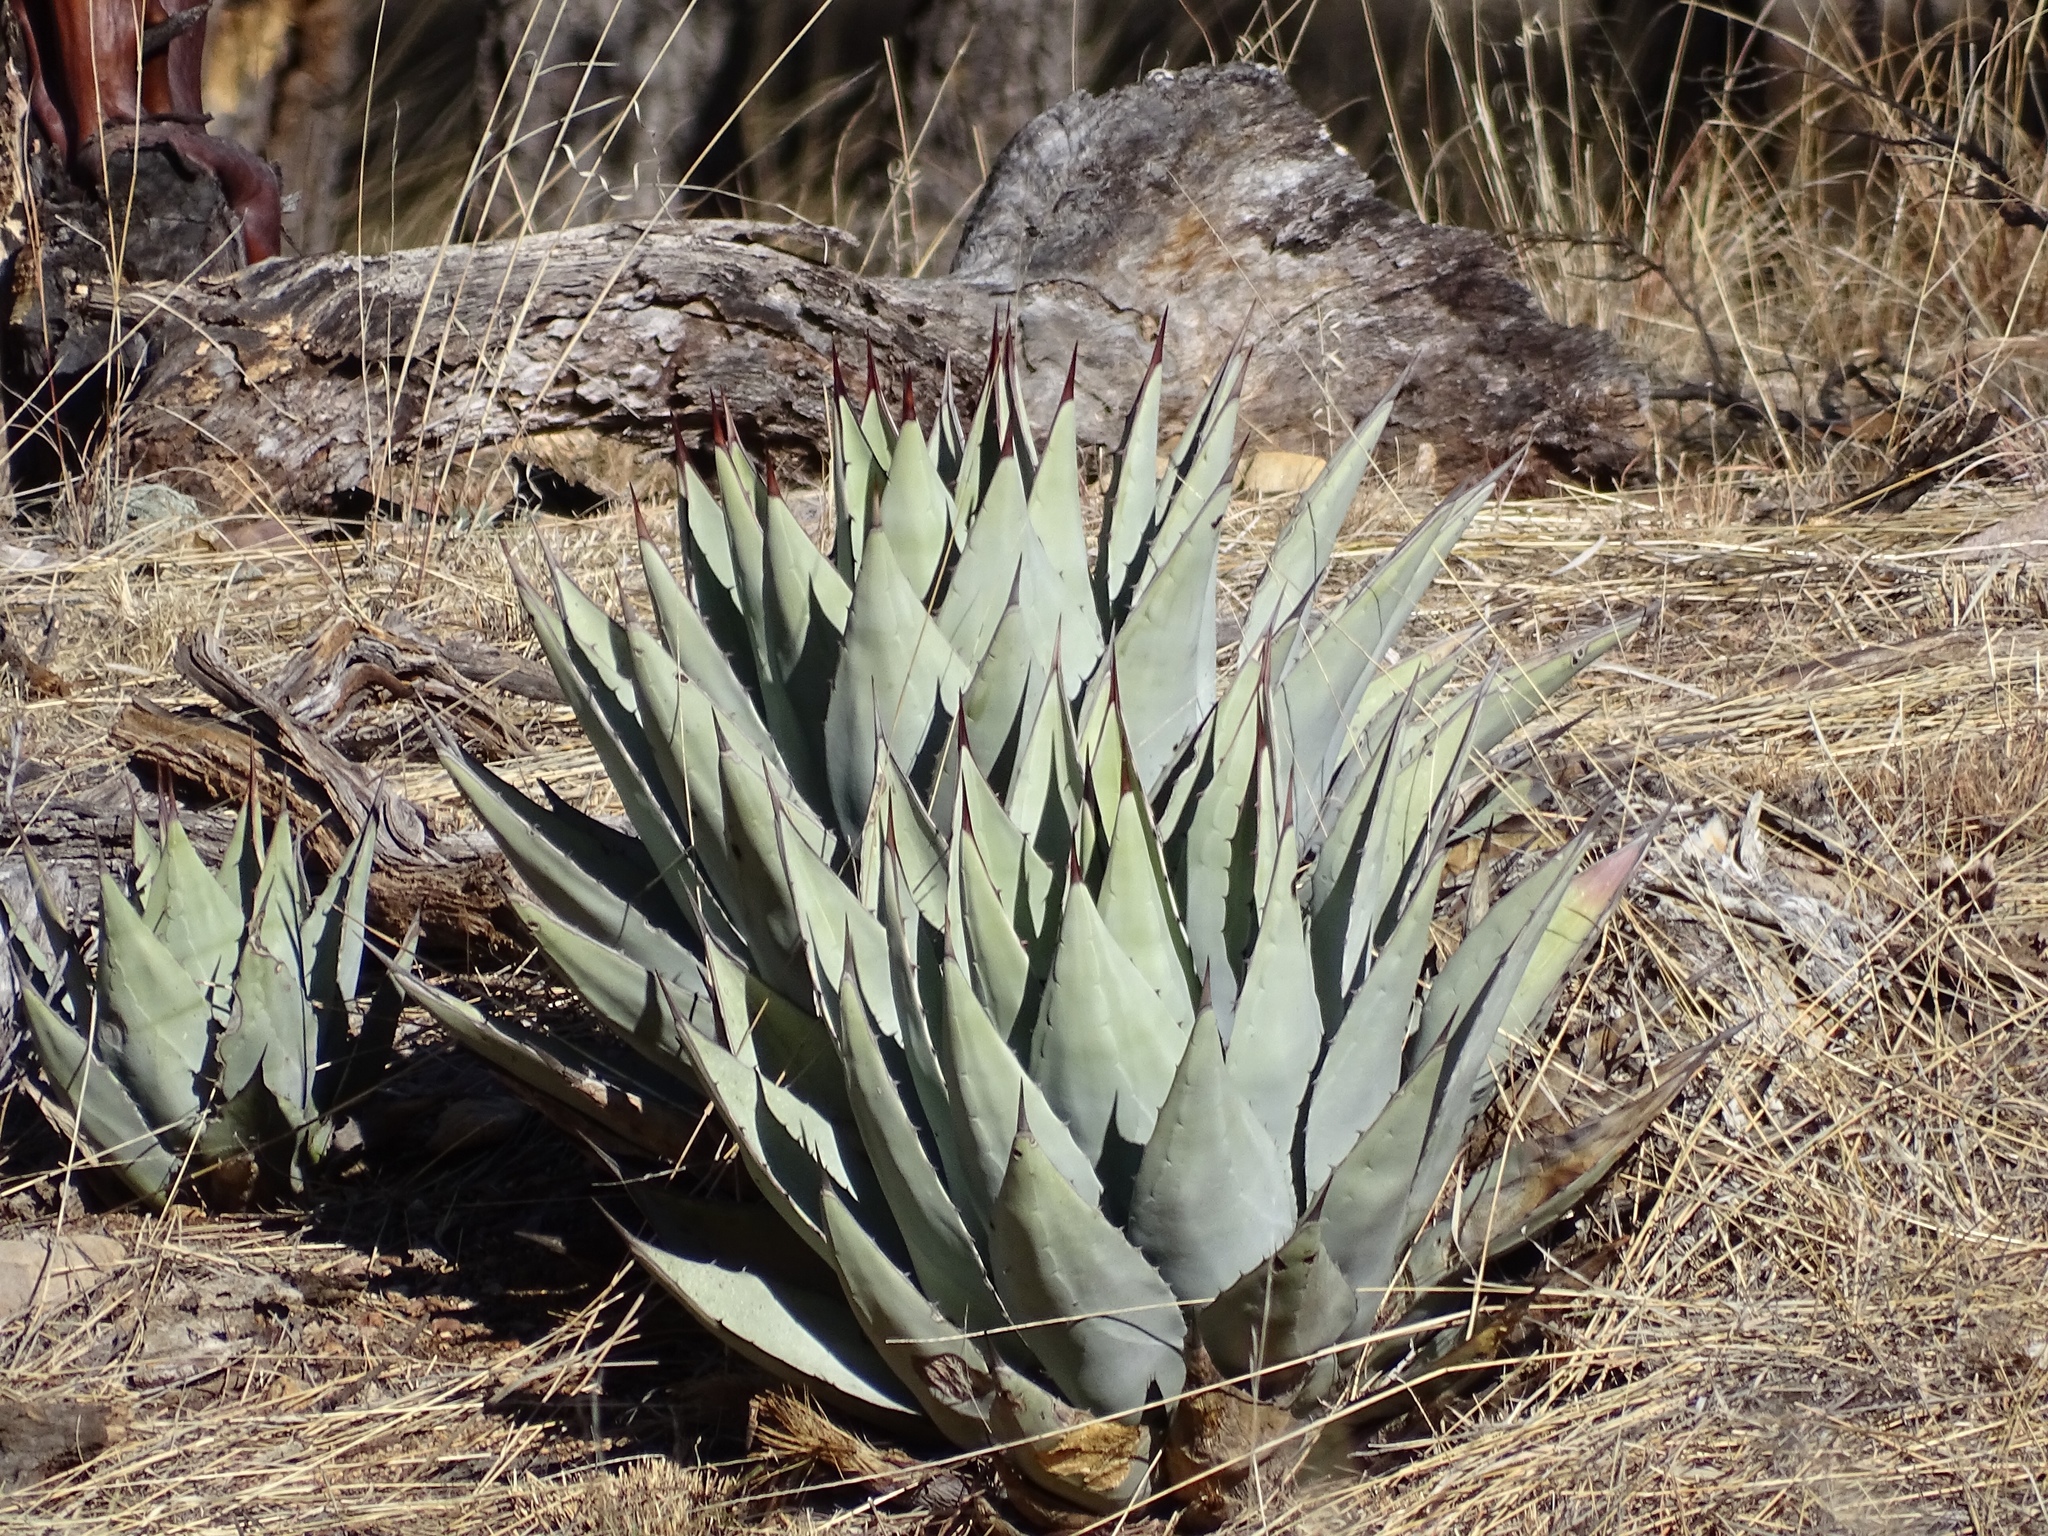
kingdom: Plantae
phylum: Tracheophyta
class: Liliopsida
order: Asparagales
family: Asparagaceae
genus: Agave
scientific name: Agave parryi
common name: Parry's agave
